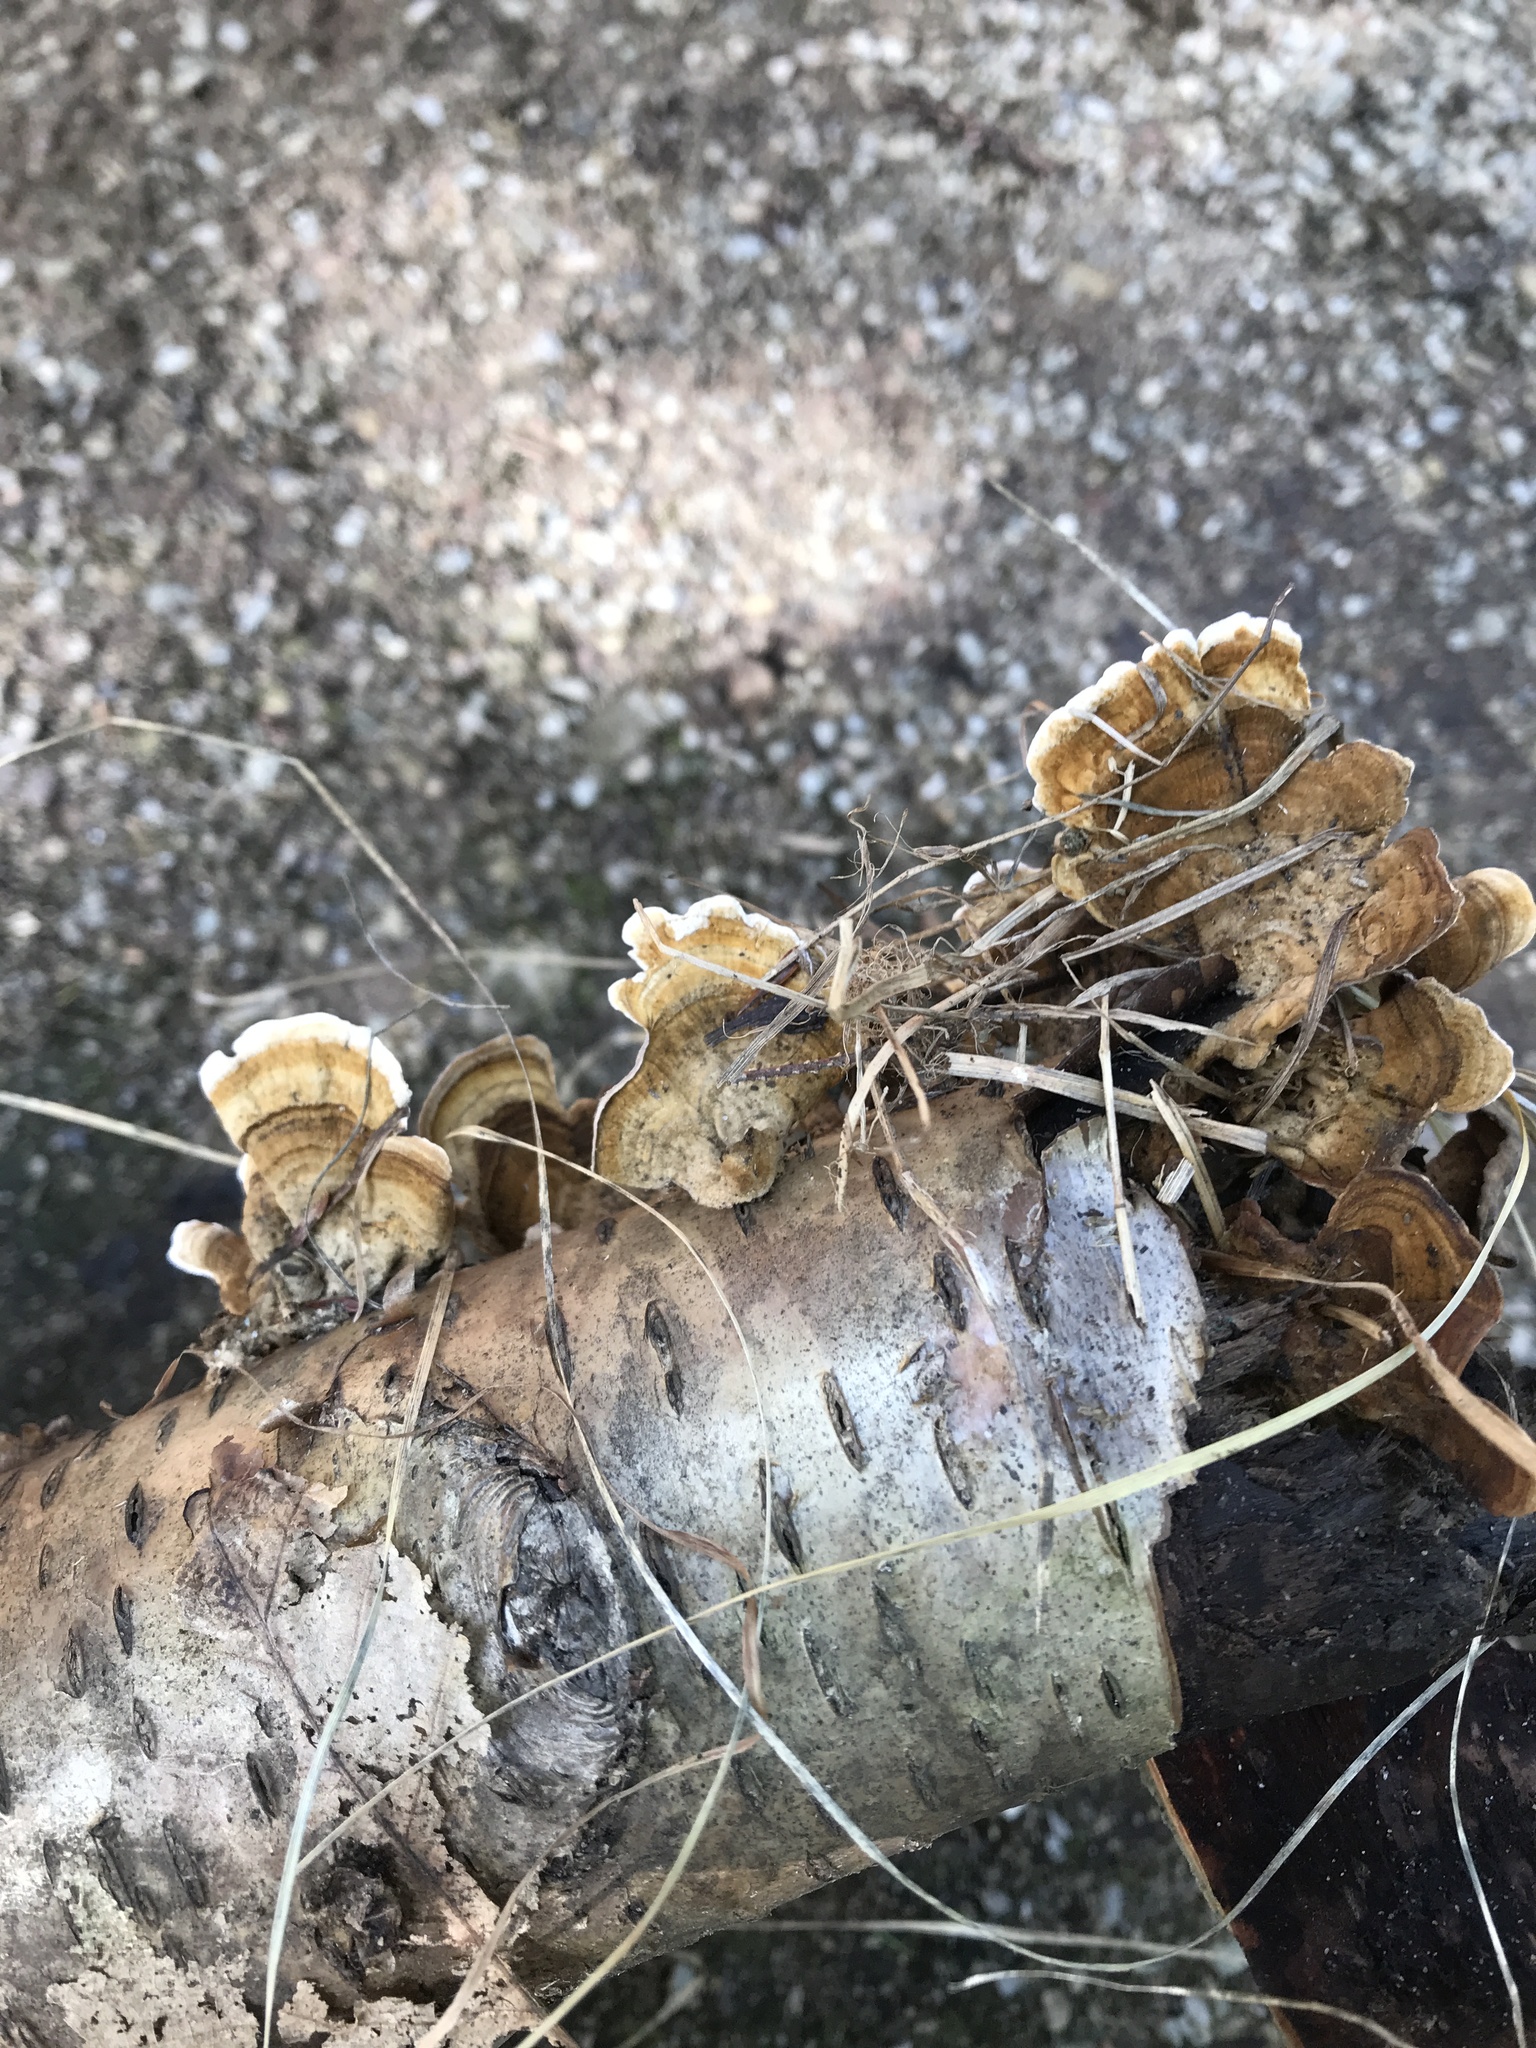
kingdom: Fungi
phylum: Basidiomycota
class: Agaricomycetes
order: Polyporales
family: Polyporaceae
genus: Trametes
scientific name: Trametes versicolor
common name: Turkeytail
